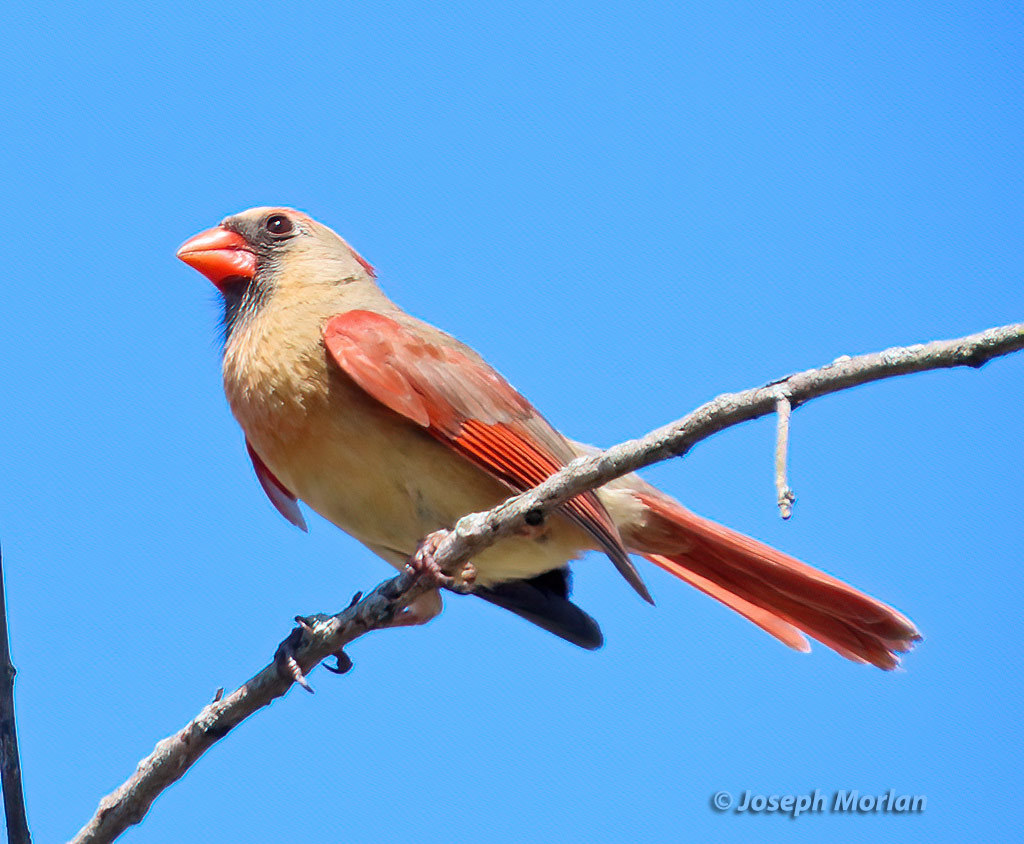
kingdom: Animalia
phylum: Chordata
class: Aves
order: Passeriformes
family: Cardinalidae
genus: Cardinalis
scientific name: Cardinalis cardinalis
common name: Northern cardinal
